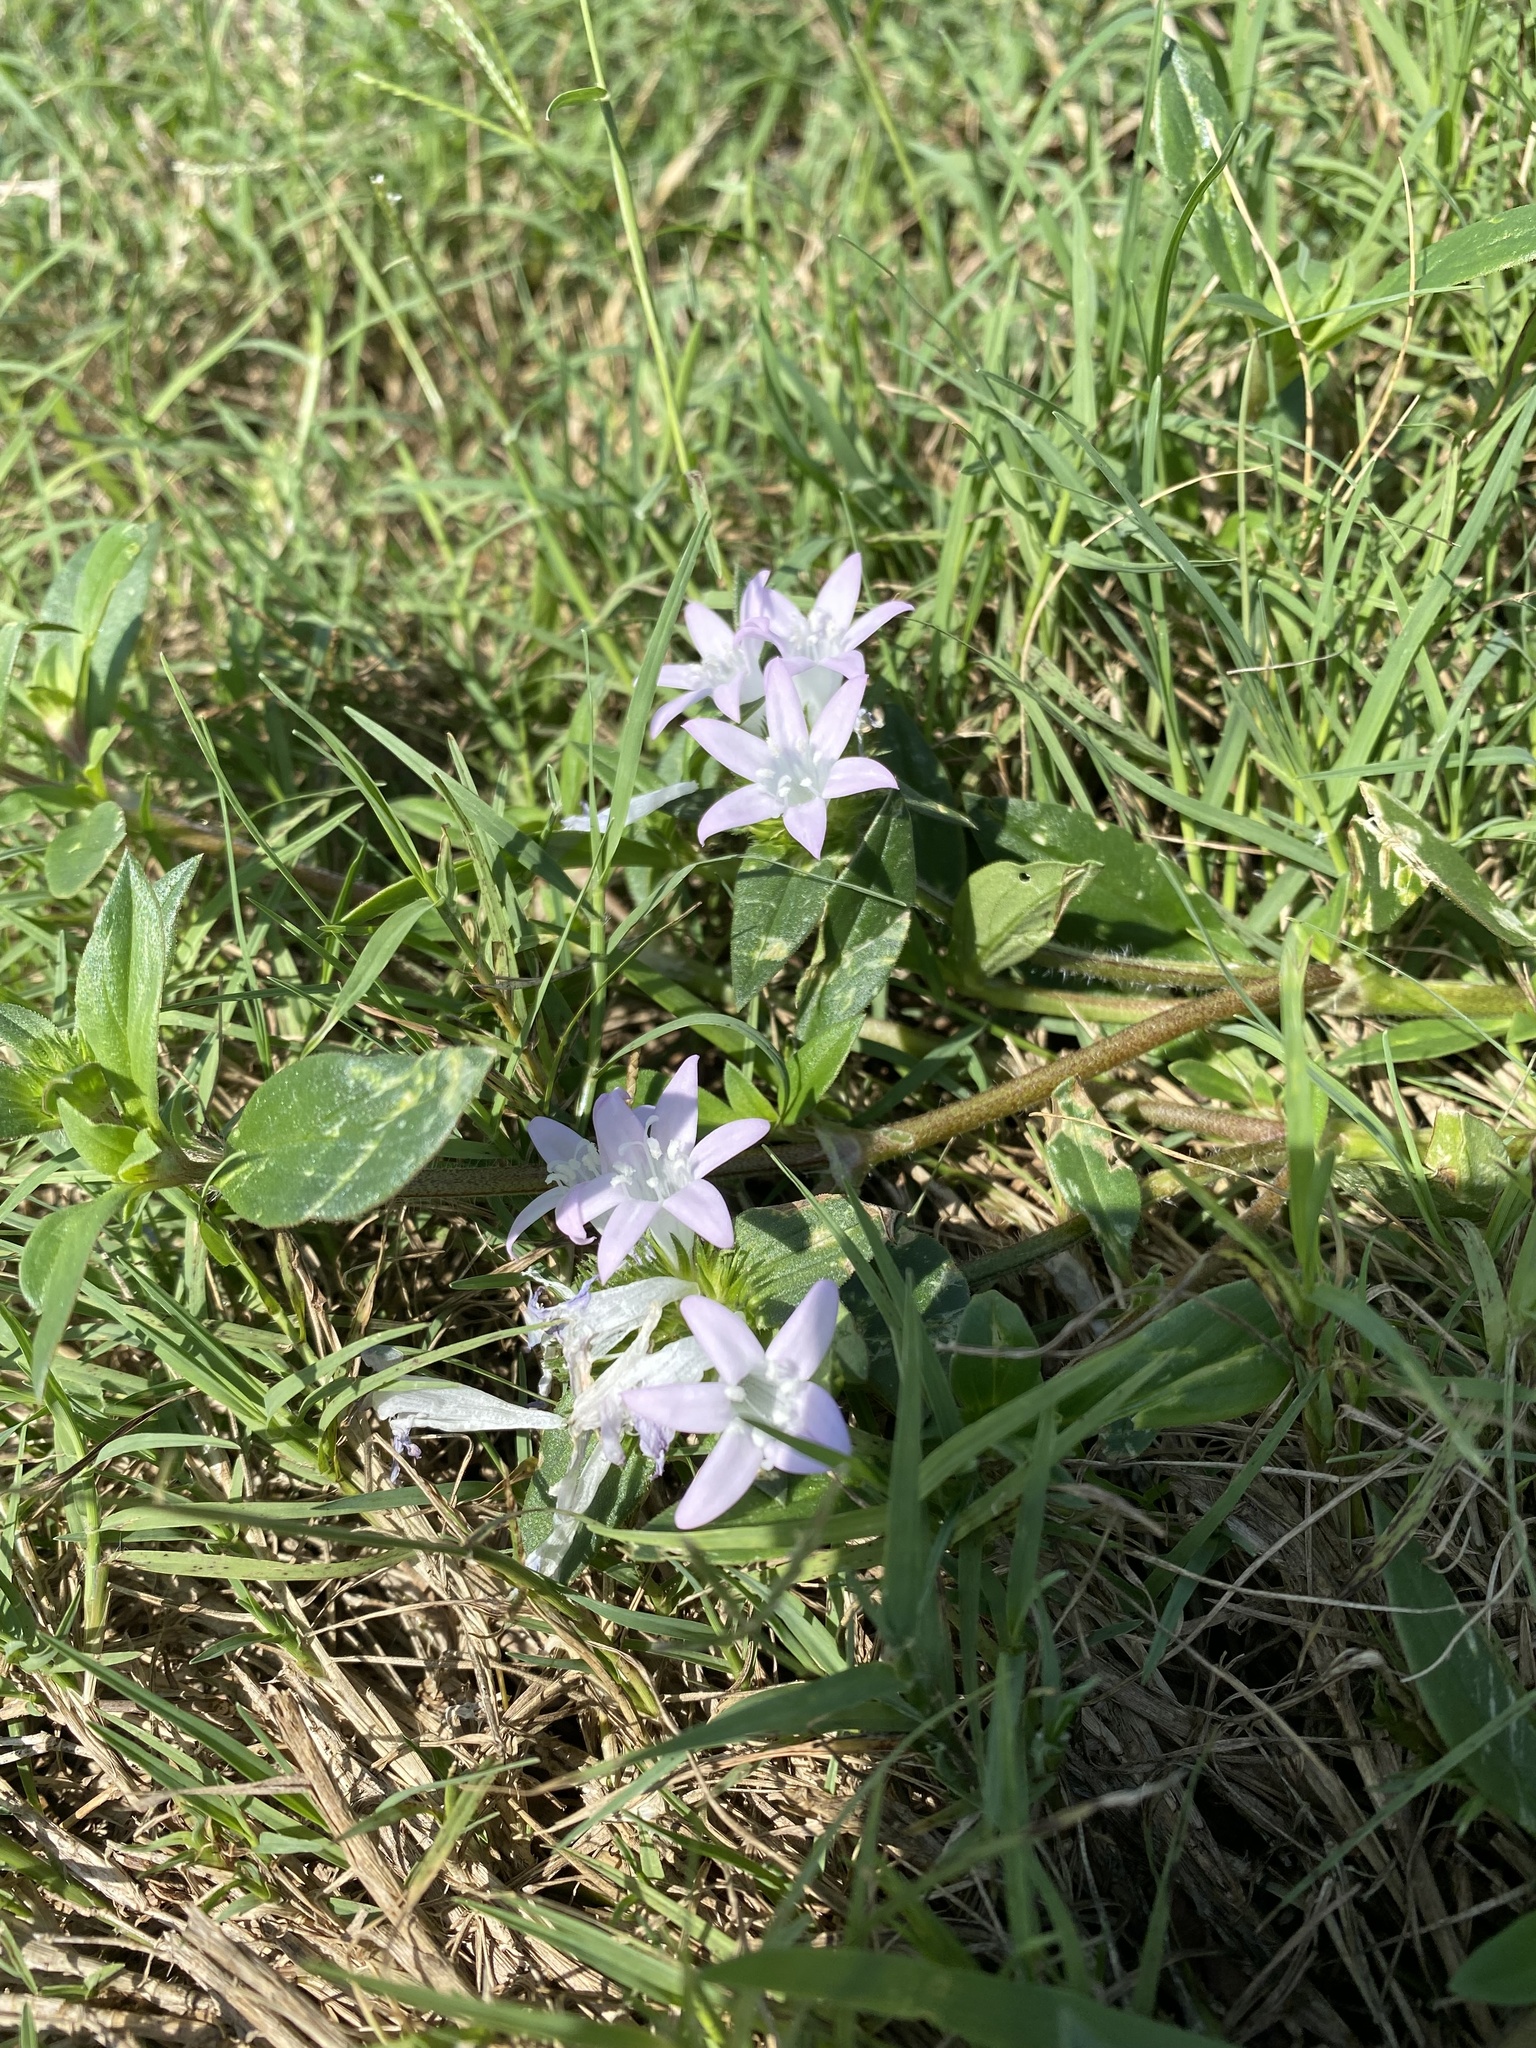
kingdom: Plantae
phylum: Tracheophyta
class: Magnoliopsida
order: Gentianales
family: Rubiaceae
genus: Richardia
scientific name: Richardia grandiflora
